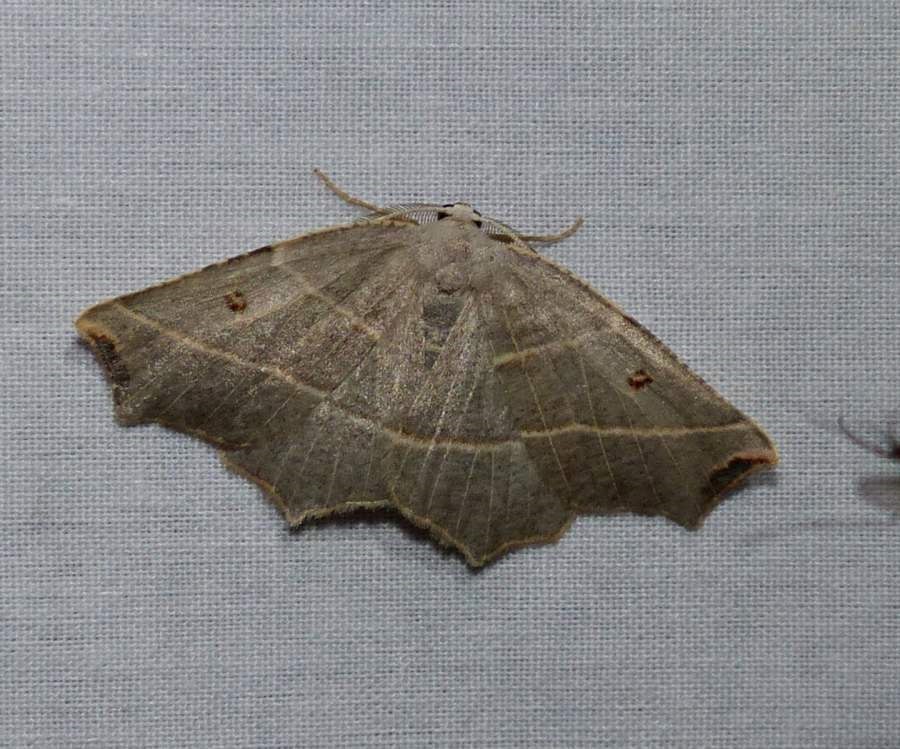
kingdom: Animalia
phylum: Arthropoda
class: Insecta
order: Lepidoptera
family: Geometridae
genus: Metanema
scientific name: Metanema inatomaria
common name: Pale metanema
